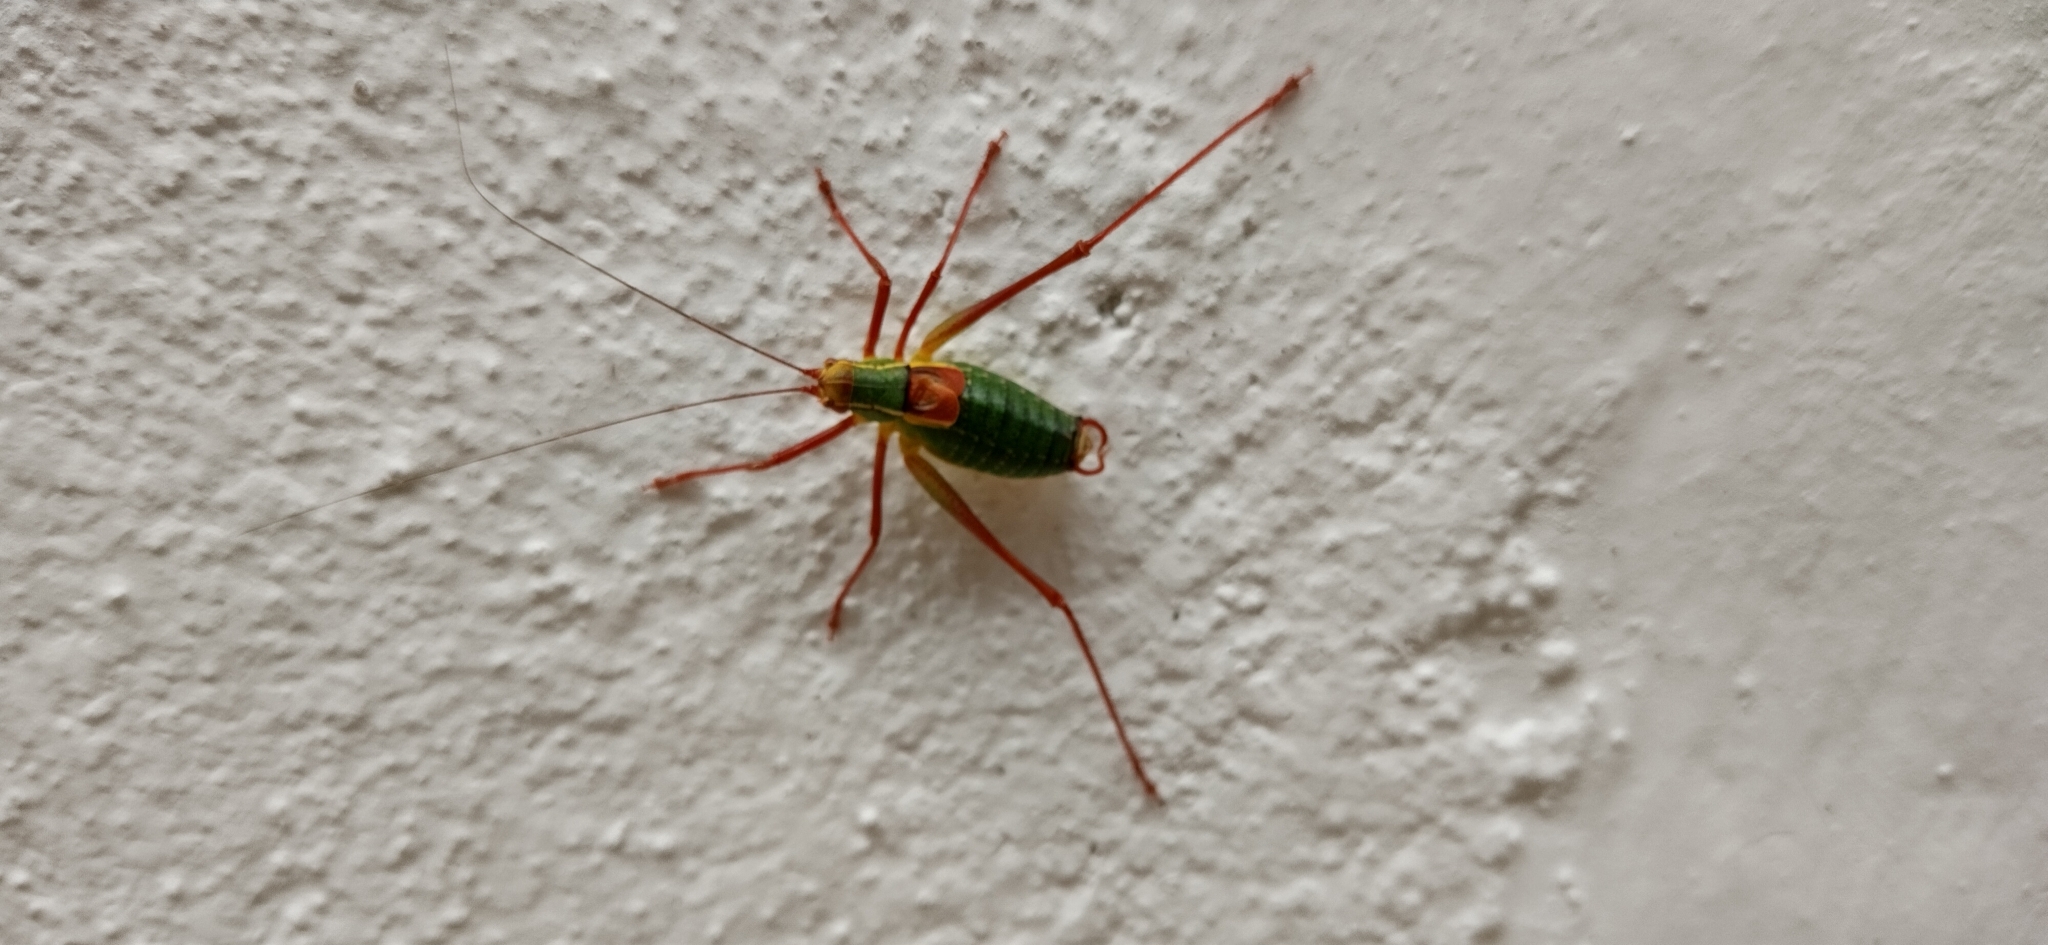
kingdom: Animalia
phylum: Arthropoda
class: Insecta
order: Orthoptera
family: Tettigoniidae
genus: Barbitistes
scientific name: Barbitistes serricauda
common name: Saw-tailed bush-cricket
